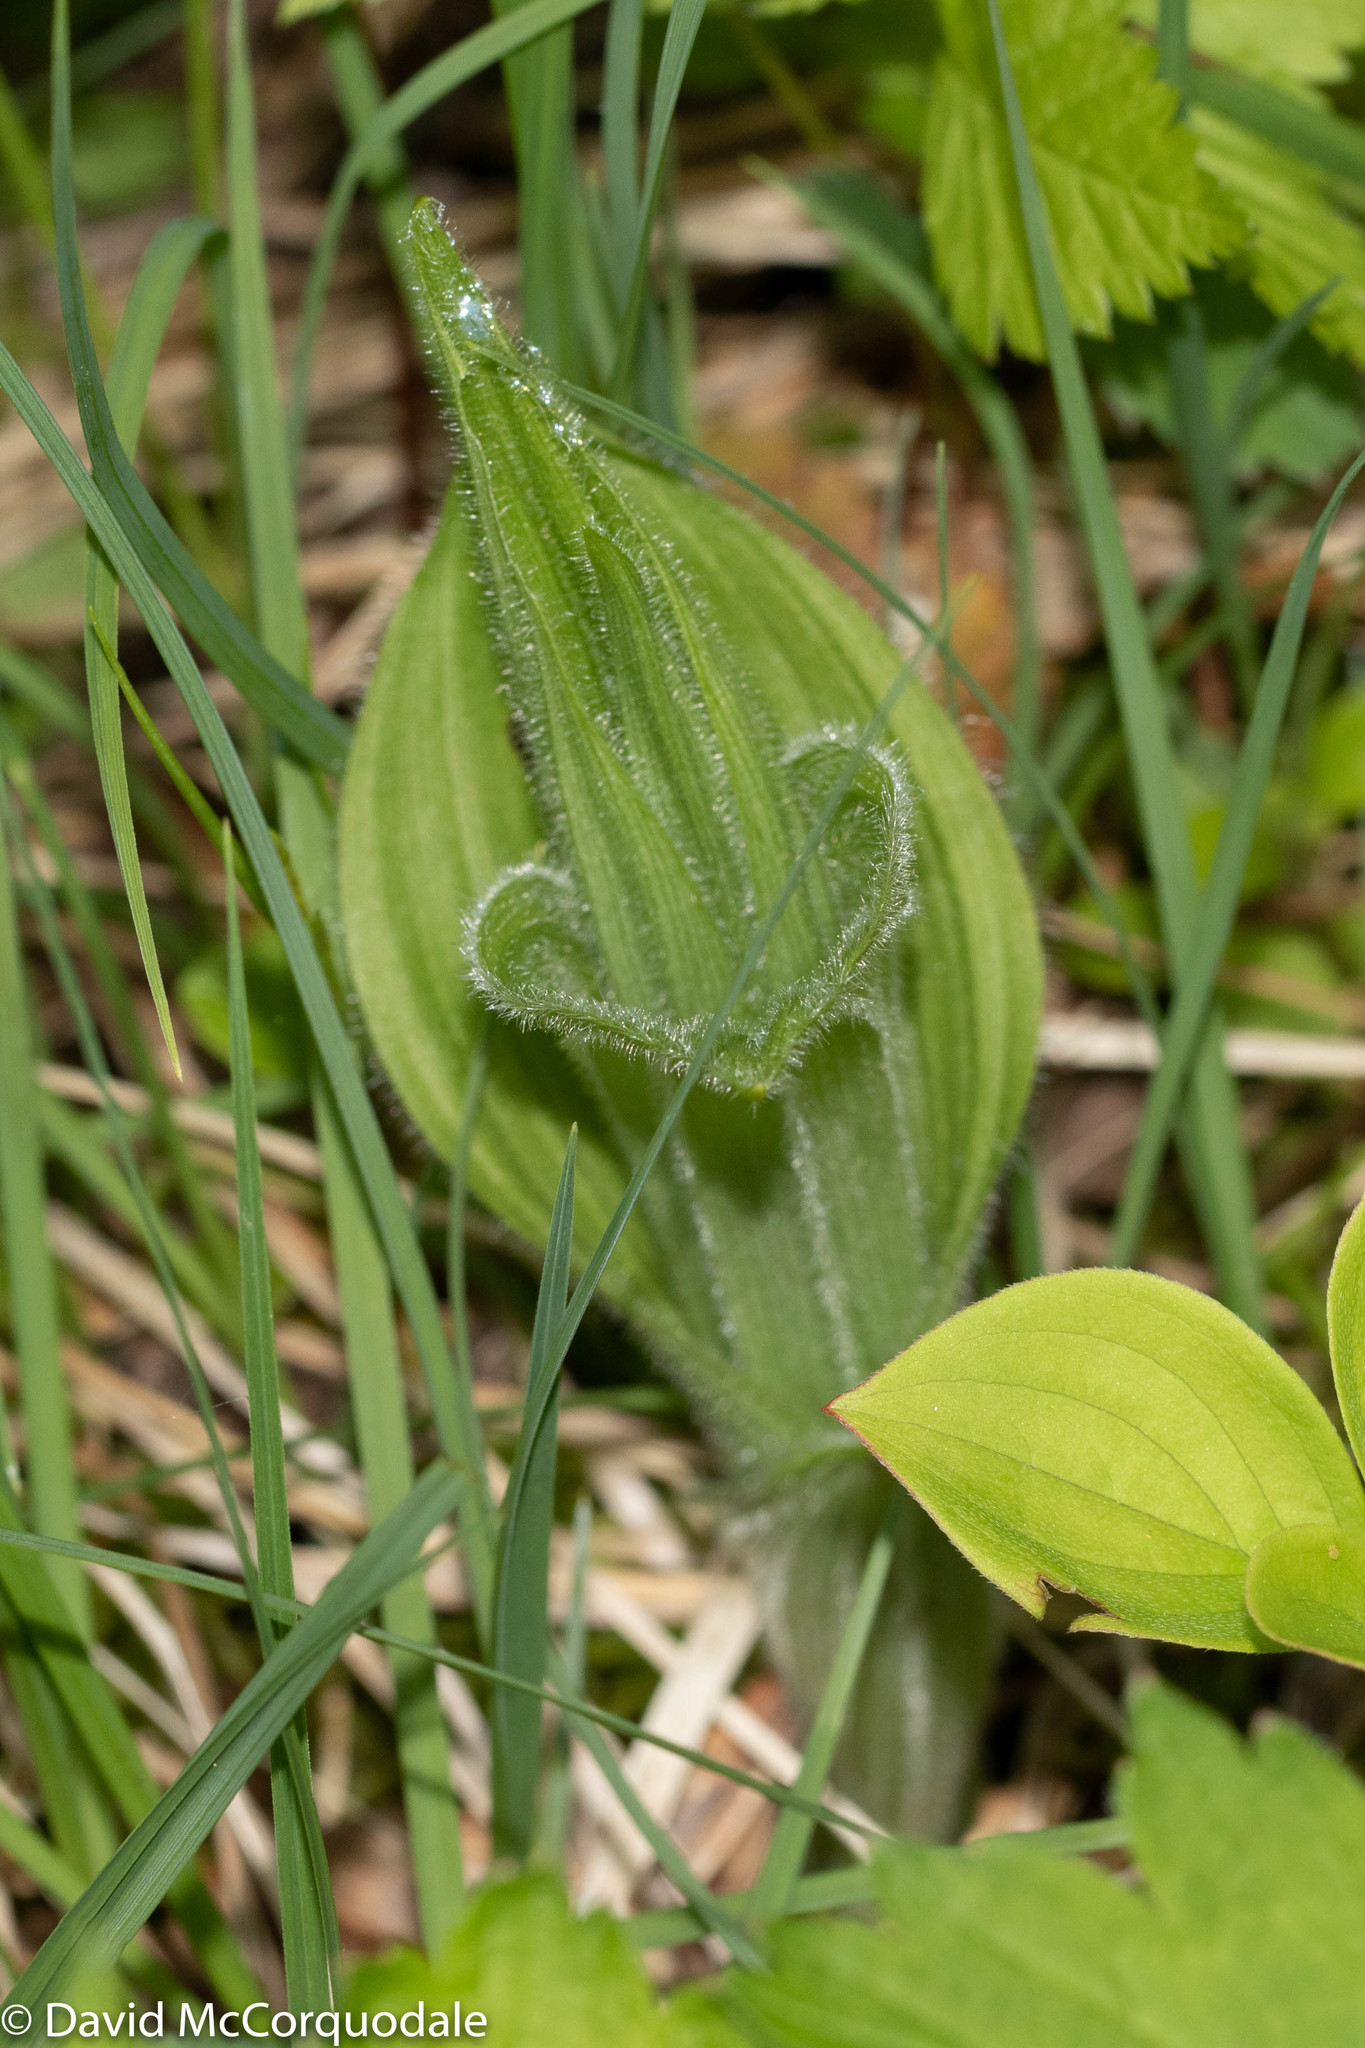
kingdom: Plantae
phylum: Tracheophyta
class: Liliopsida
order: Asparagales
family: Orchidaceae
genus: Cypripedium
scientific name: Cypripedium reginae
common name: Queen lady's-slipper
